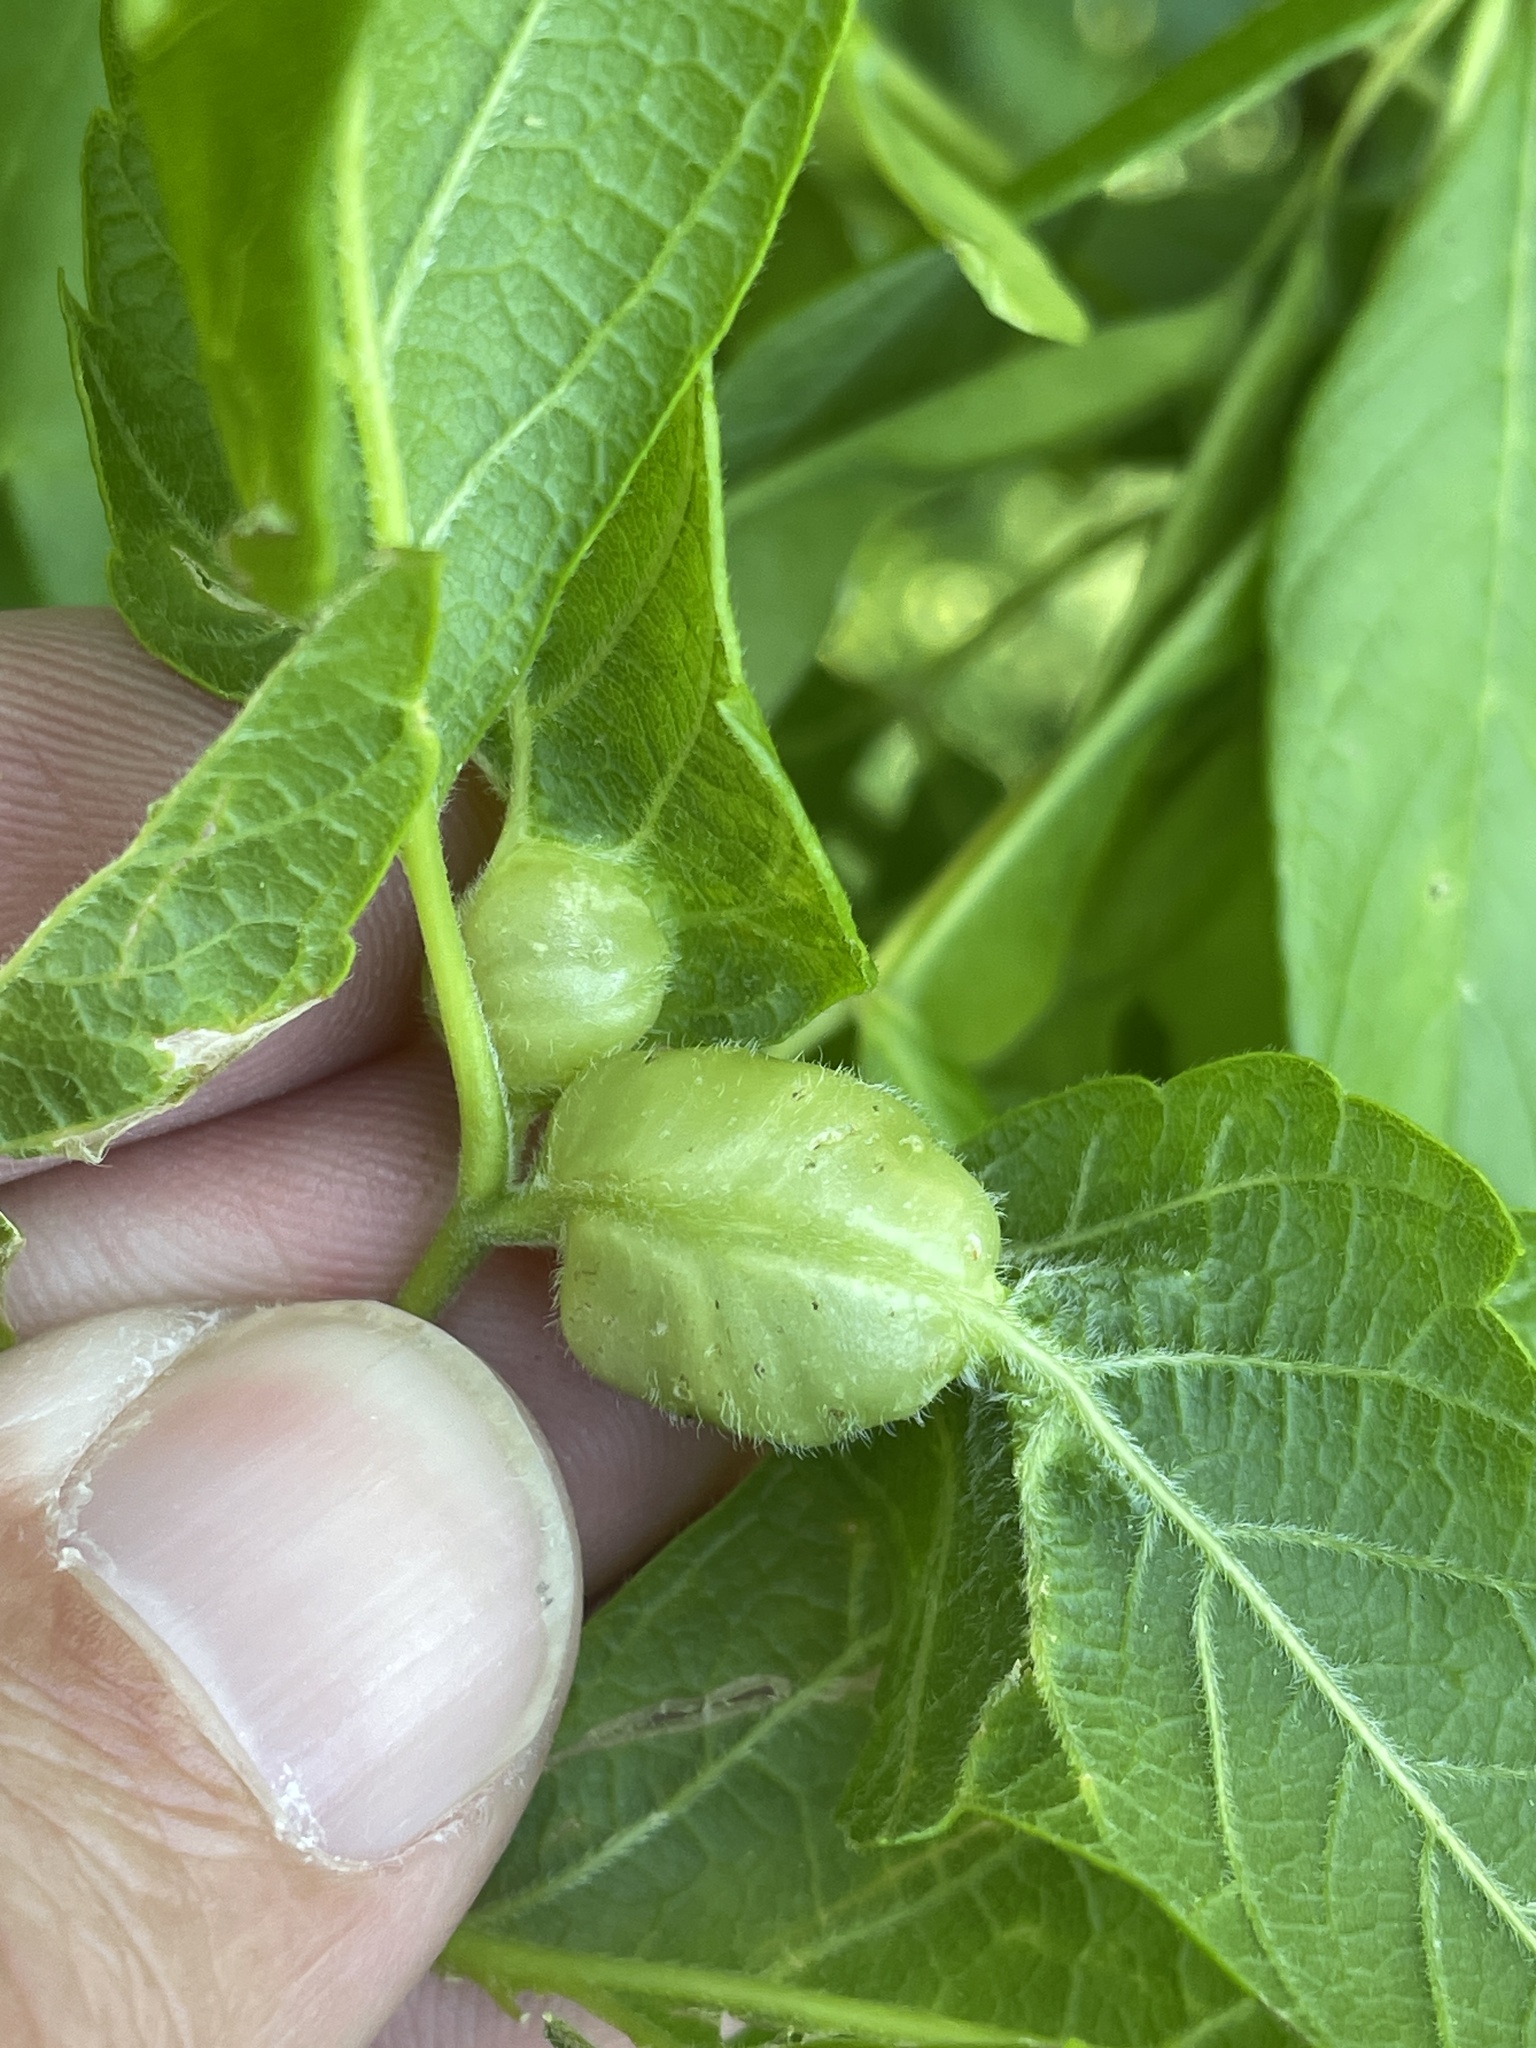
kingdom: Animalia
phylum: Arthropoda
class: Insecta
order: Diptera
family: Cecidomyiidae
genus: Contarinia
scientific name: Contarinia negundinis
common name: Boxelder budgall midge
